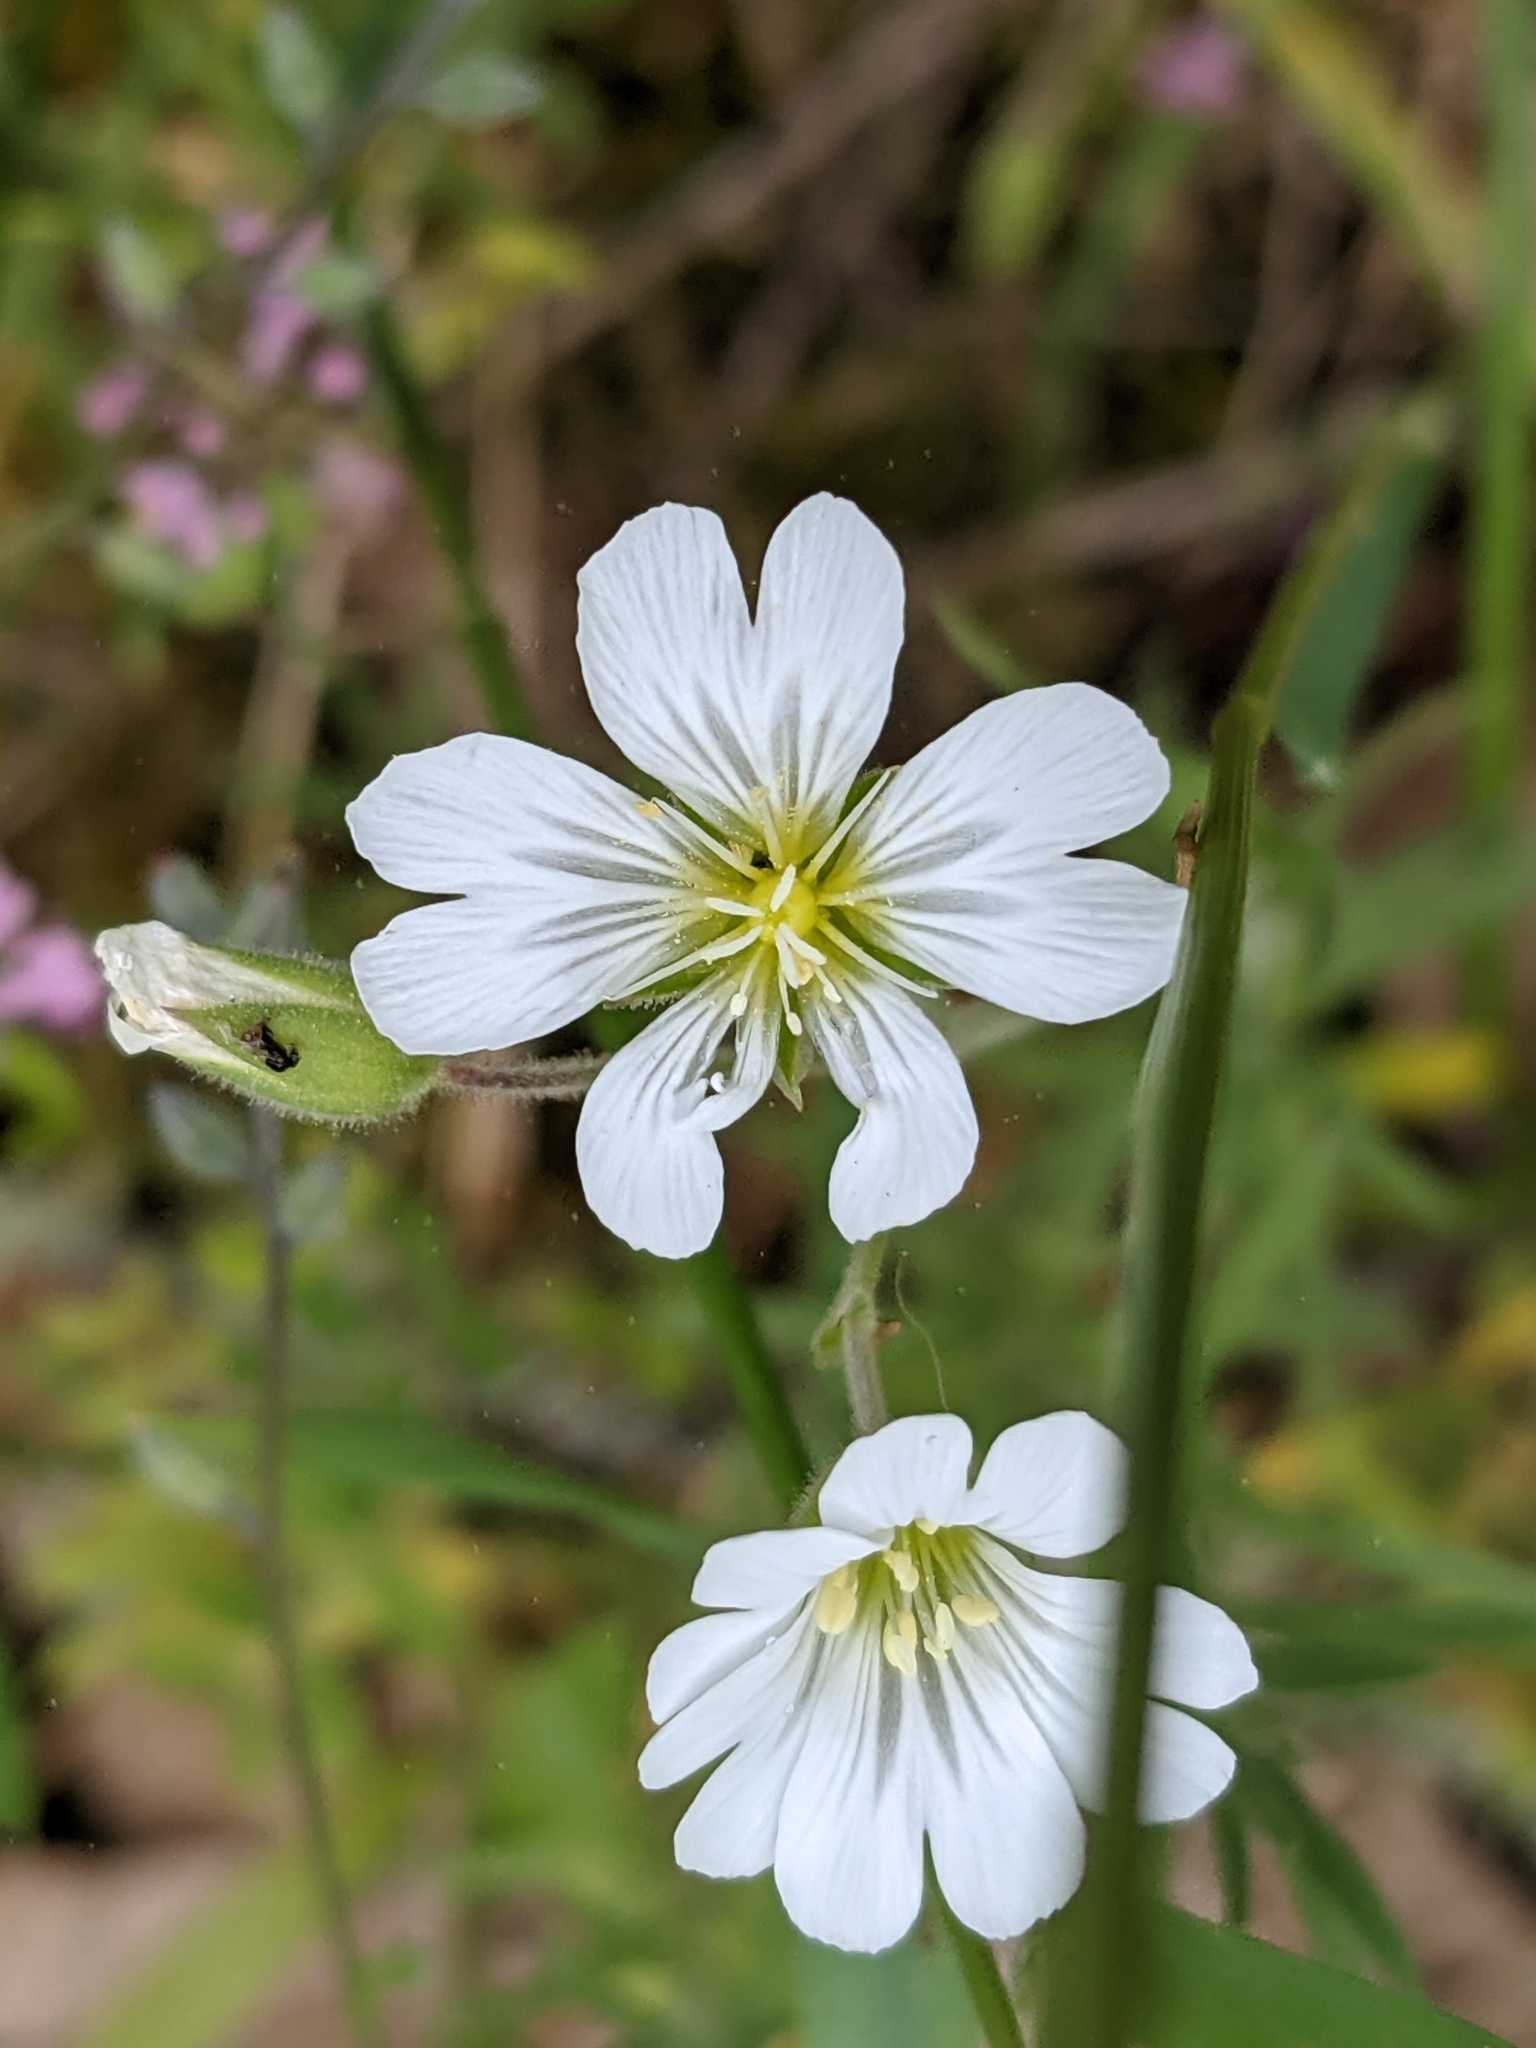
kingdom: Plantae
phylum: Tracheophyta
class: Magnoliopsida
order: Caryophyllales
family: Caryophyllaceae
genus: Cerastium
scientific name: Cerastium arvense
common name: Field mouse-ear
